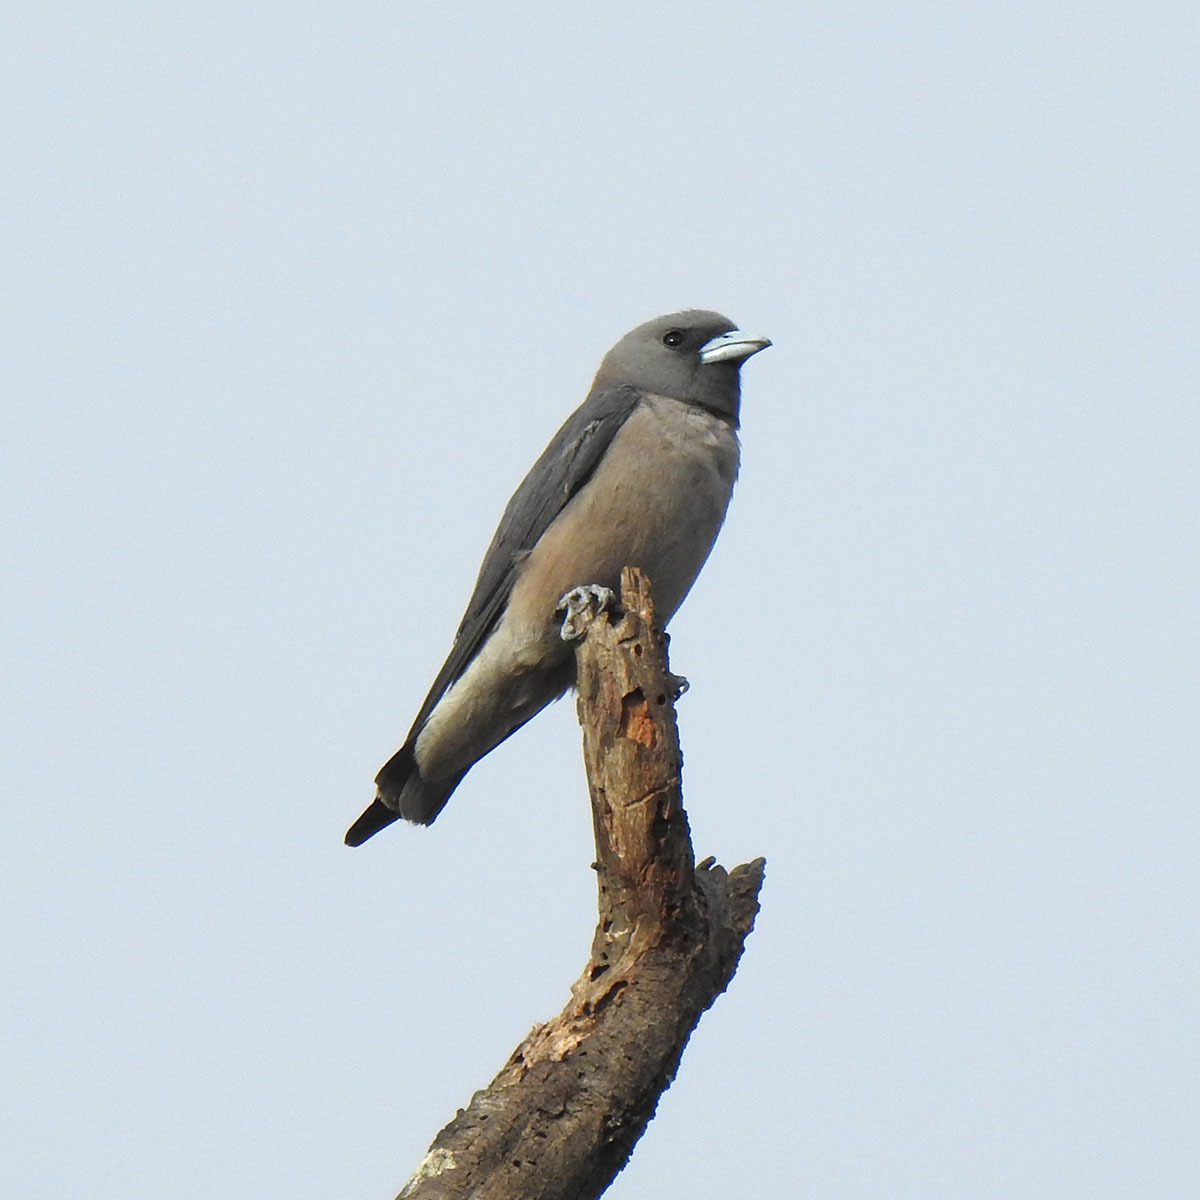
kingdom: Animalia
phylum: Chordata
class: Aves
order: Passeriformes
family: Artamidae
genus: Artamus
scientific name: Artamus fuscus
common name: Ashy woodswallow
